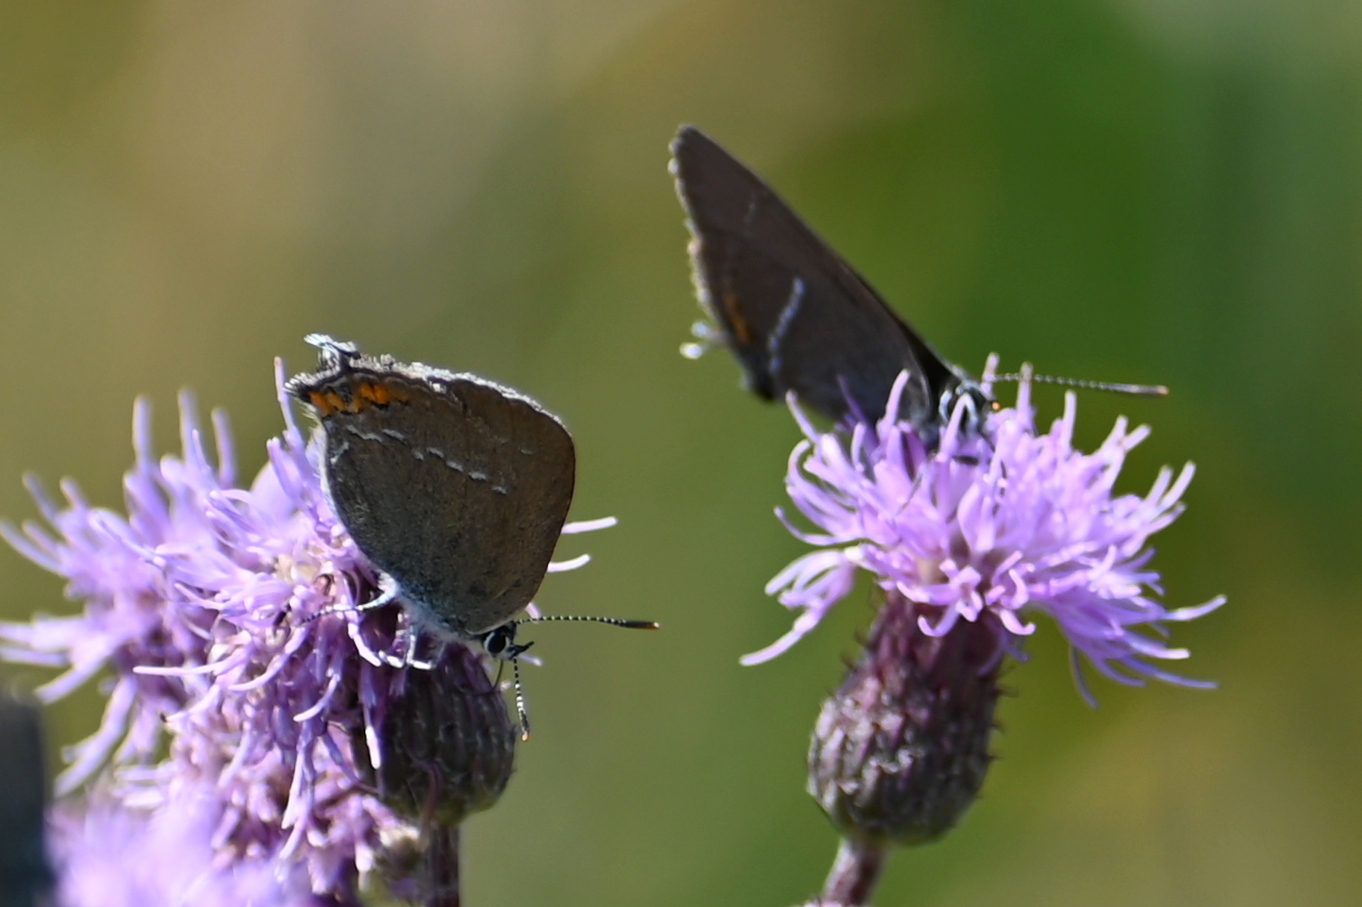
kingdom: Animalia
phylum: Arthropoda
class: Insecta
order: Lepidoptera
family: Lycaenidae
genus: Strymon
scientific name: Strymon acaciae
